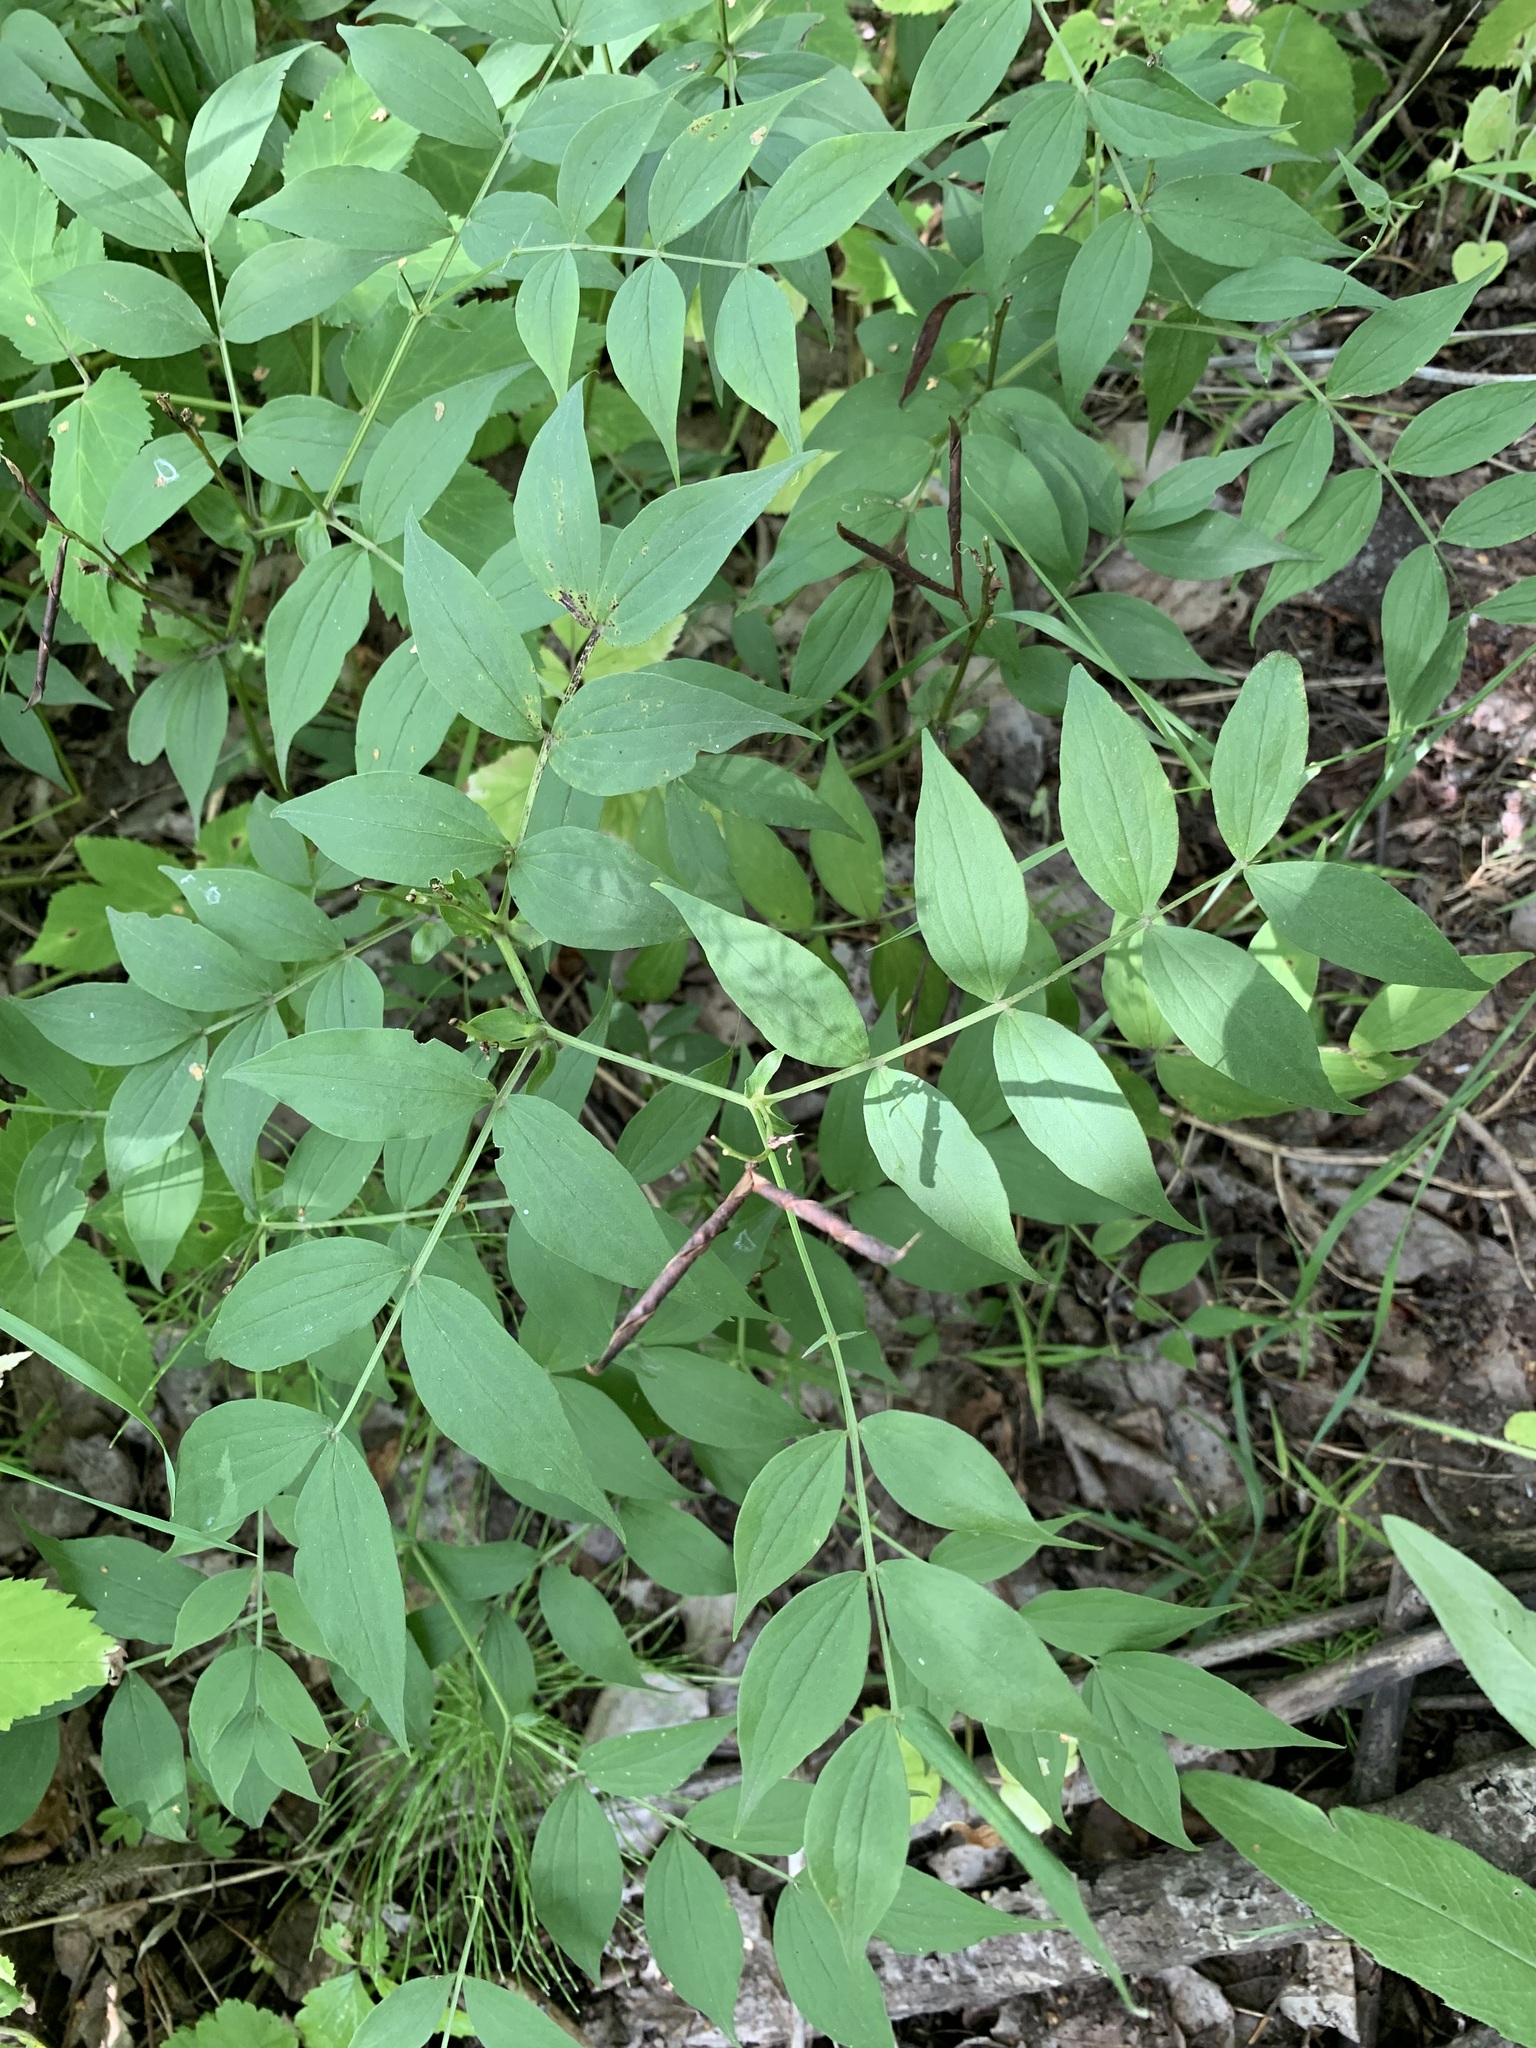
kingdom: Plantae
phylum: Tracheophyta
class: Magnoliopsida
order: Fabales
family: Fabaceae
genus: Lathyrus
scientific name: Lathyrus vernus
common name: Spring pea
